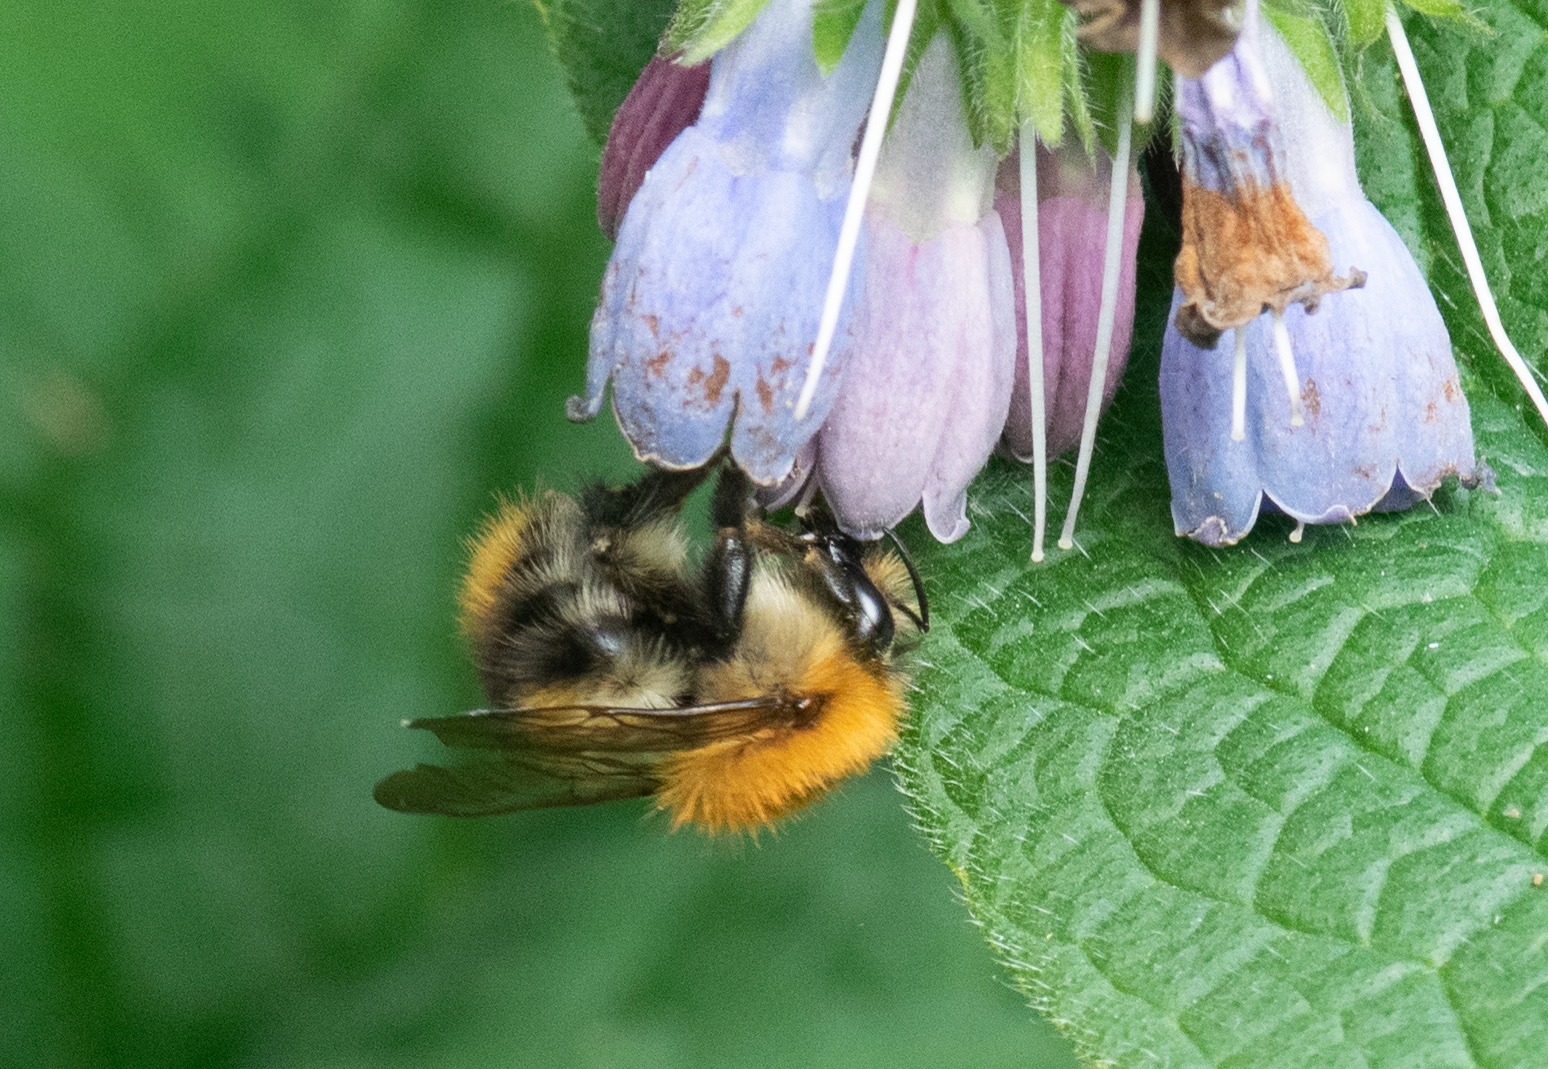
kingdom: Animalia
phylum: Arthropoda
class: Insecta
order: Hymenoptera
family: Apidae
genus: Bombus
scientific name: Bombus pascuorum
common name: Common carder bee
